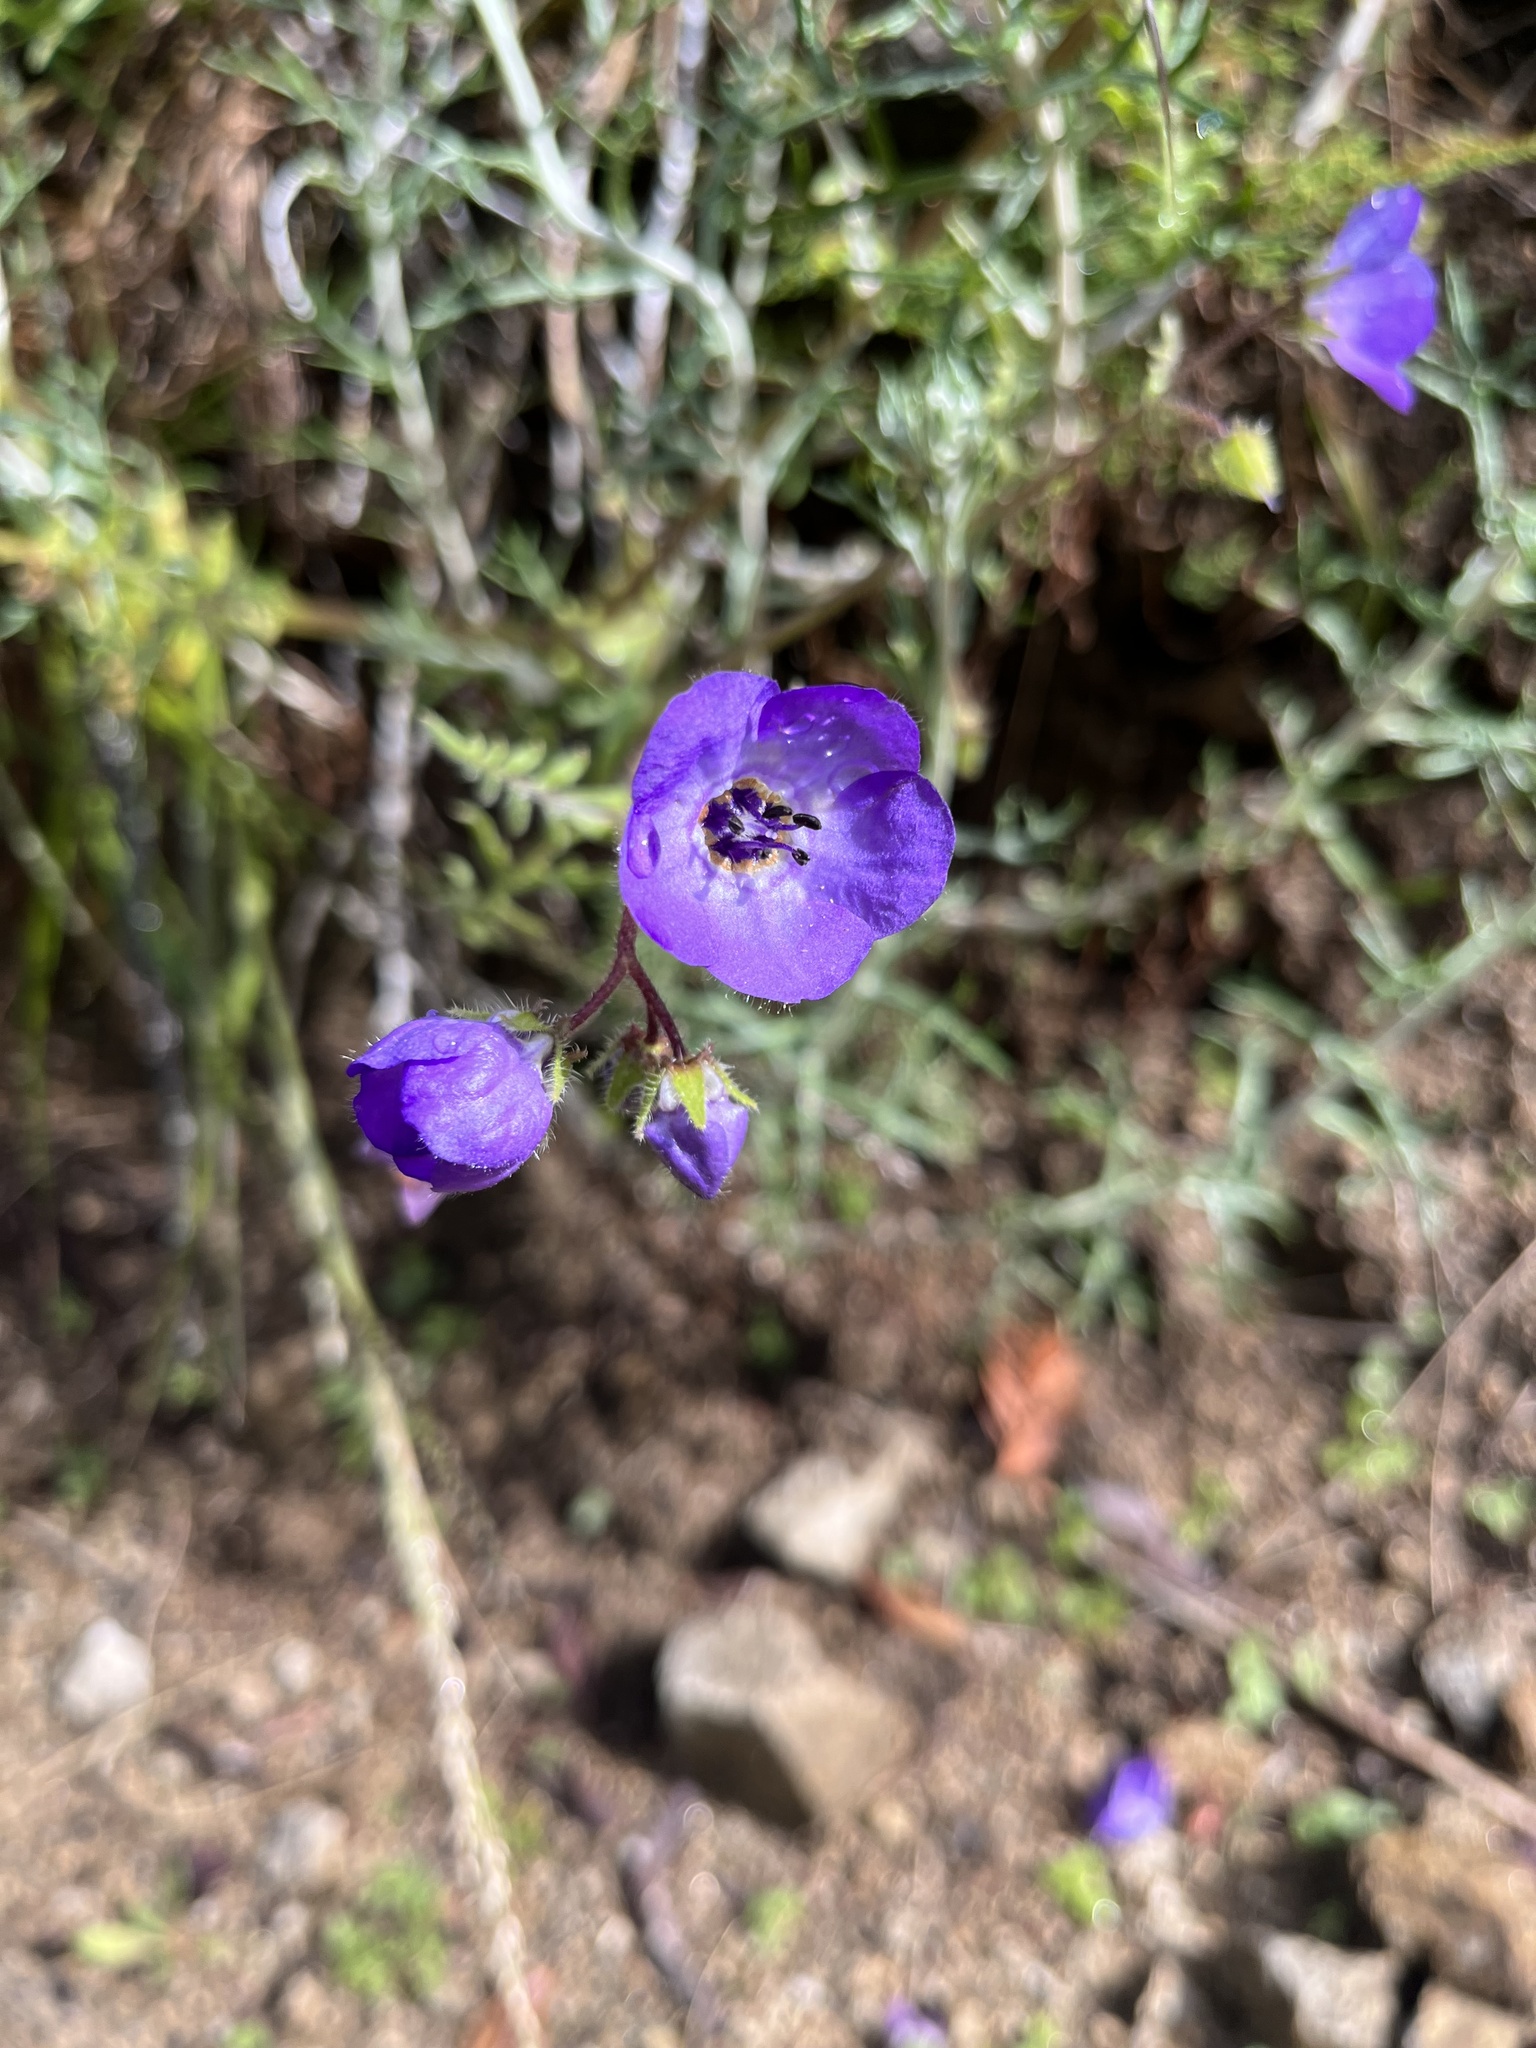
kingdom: Plantae
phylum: Tracheophyta
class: Magnoliopsida
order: Boraginales
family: Hydrophyllaceae
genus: Pholistoma
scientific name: Pholistoma auritum
